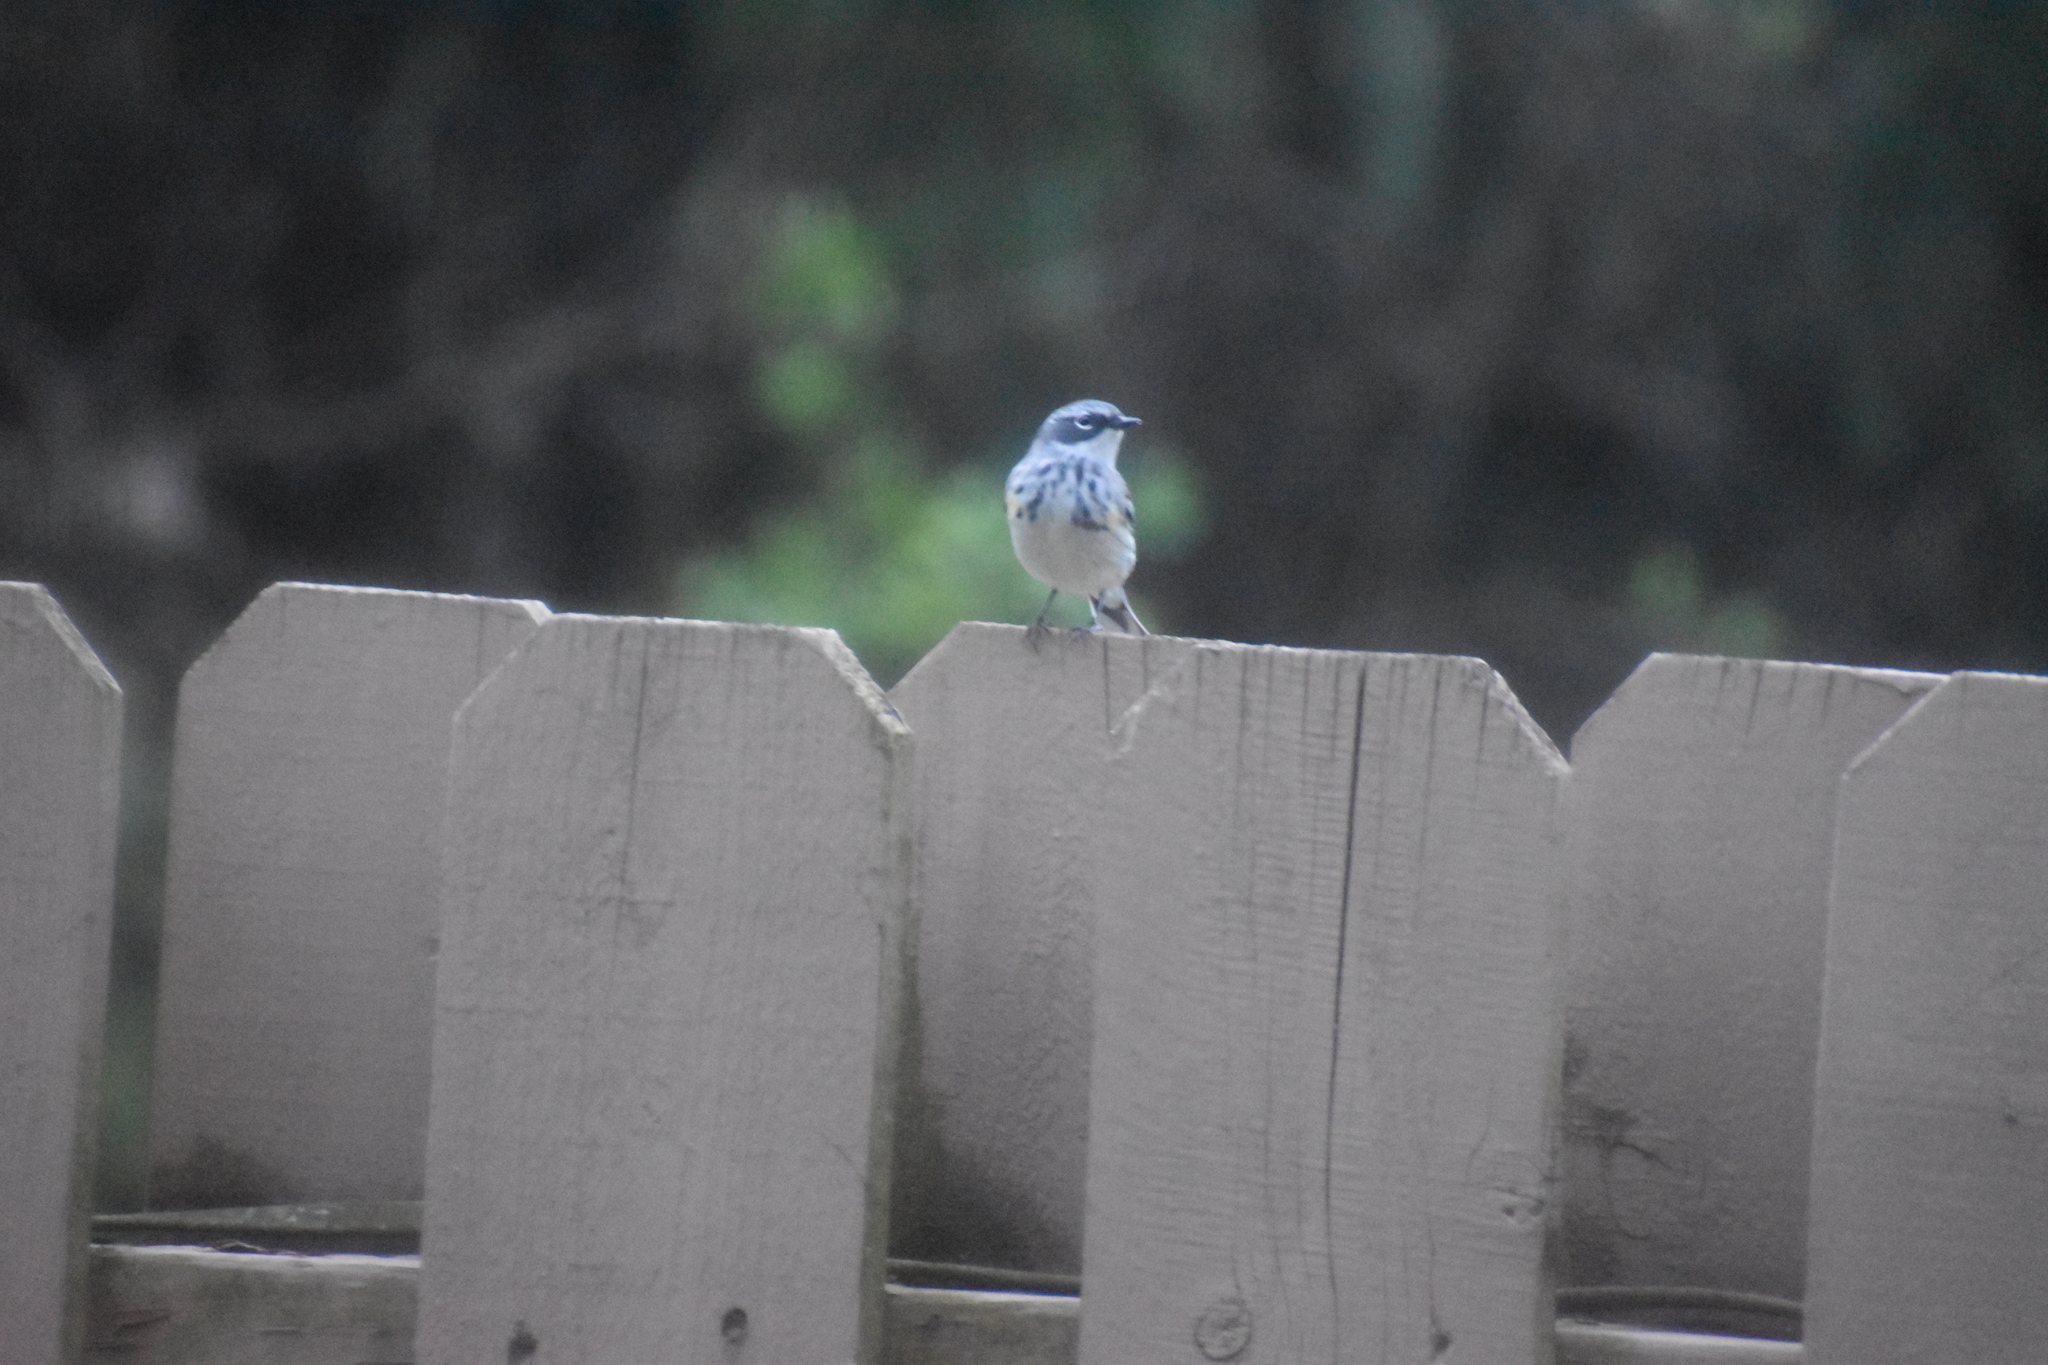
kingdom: Animalia
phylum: Chordata
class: Aves
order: Passeriformes
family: Parulidae
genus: Setophaga
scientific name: Setophaga coronata
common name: Myrtle warbler
